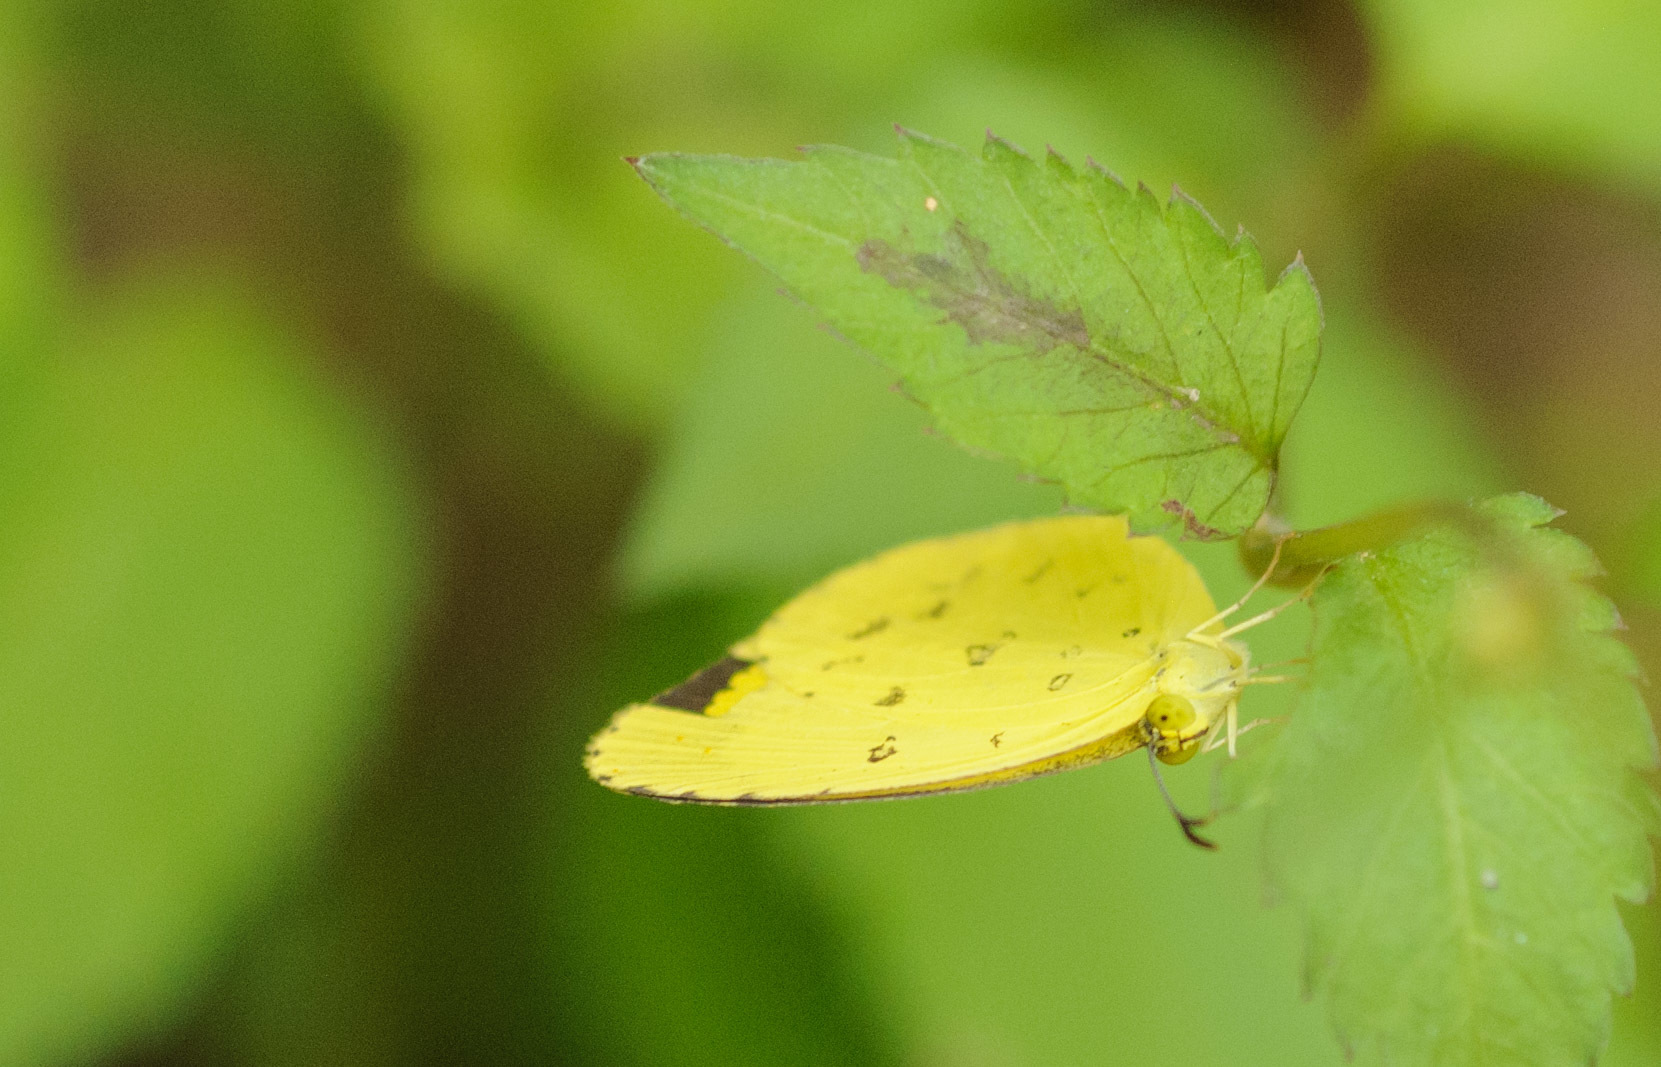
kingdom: Animalia
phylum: Arthropoda
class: Insecta
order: Lepidoptera
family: Pieridae
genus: Eurema
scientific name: Eurema hecabe
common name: Pale grass yellow
